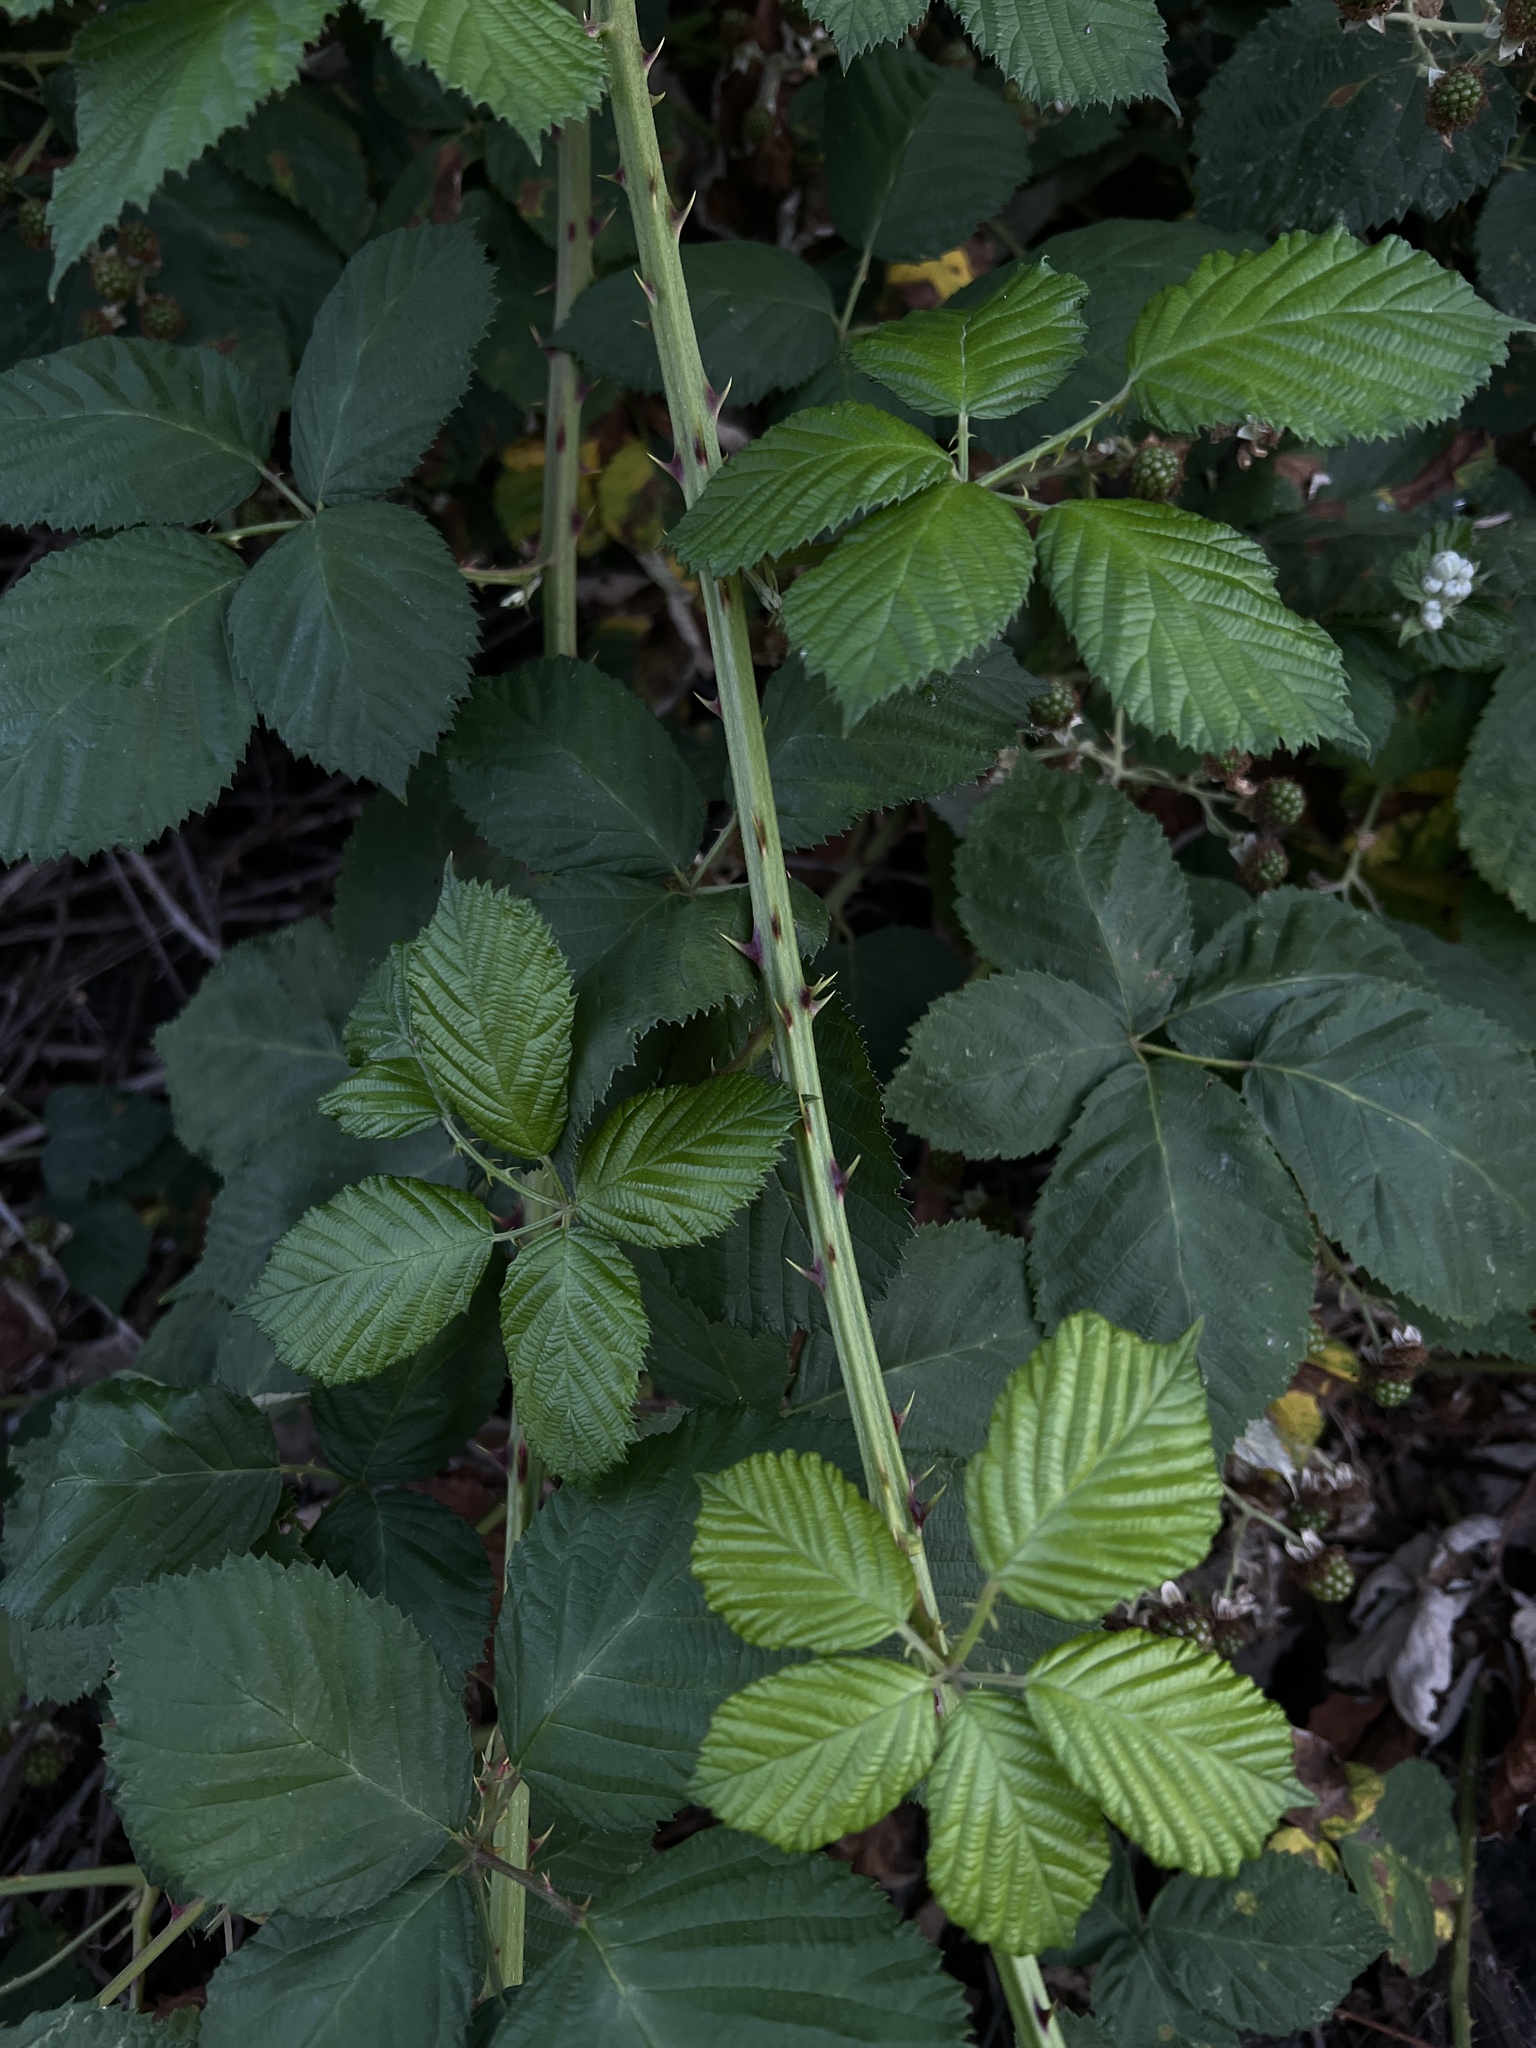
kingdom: Plantae
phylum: Tracheophyta
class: Magnoliopsida
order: Rosales
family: Rosaceae
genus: Rubus
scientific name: Rubus armeniacus
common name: Himalayan blackberry
